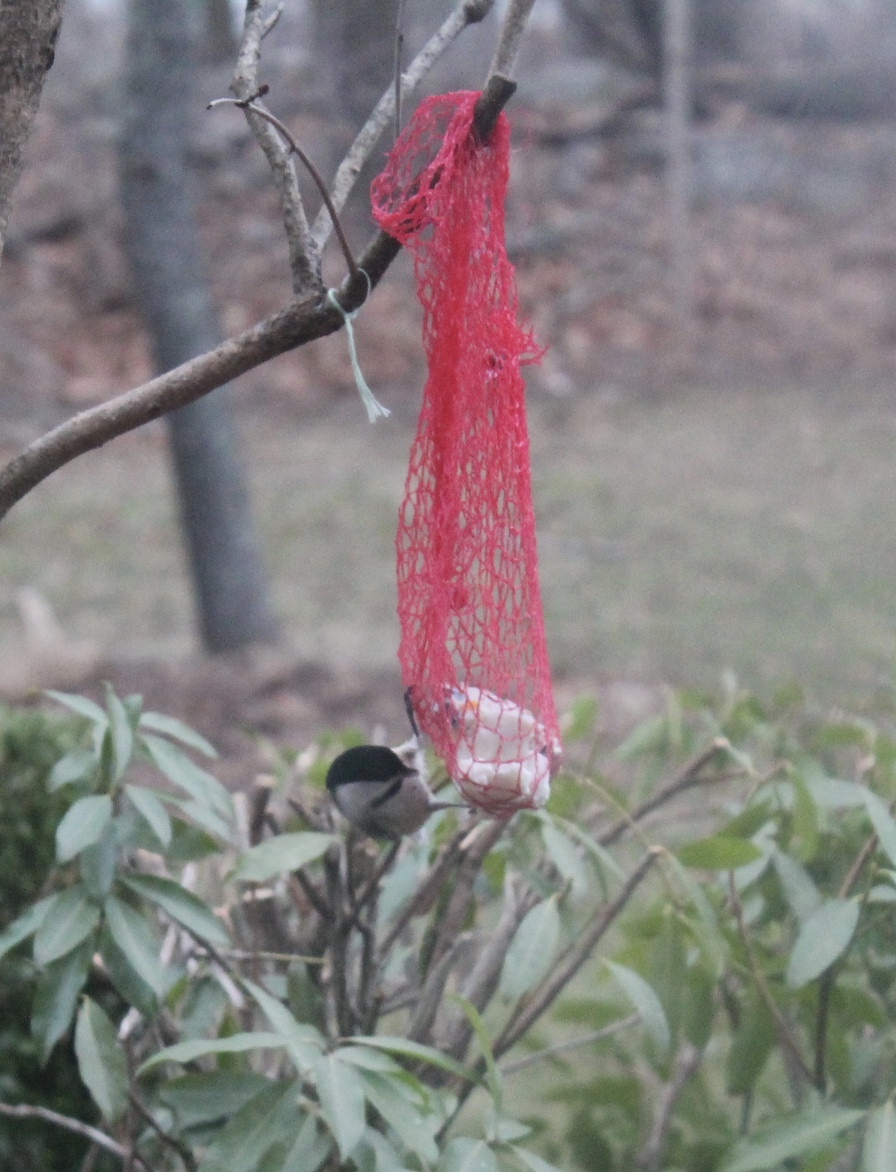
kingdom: Animalia
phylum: Chordata
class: Aves
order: Passeriformes
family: Paridae
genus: Poecile
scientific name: Poecile atricapillus
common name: Black-capped chickadee
